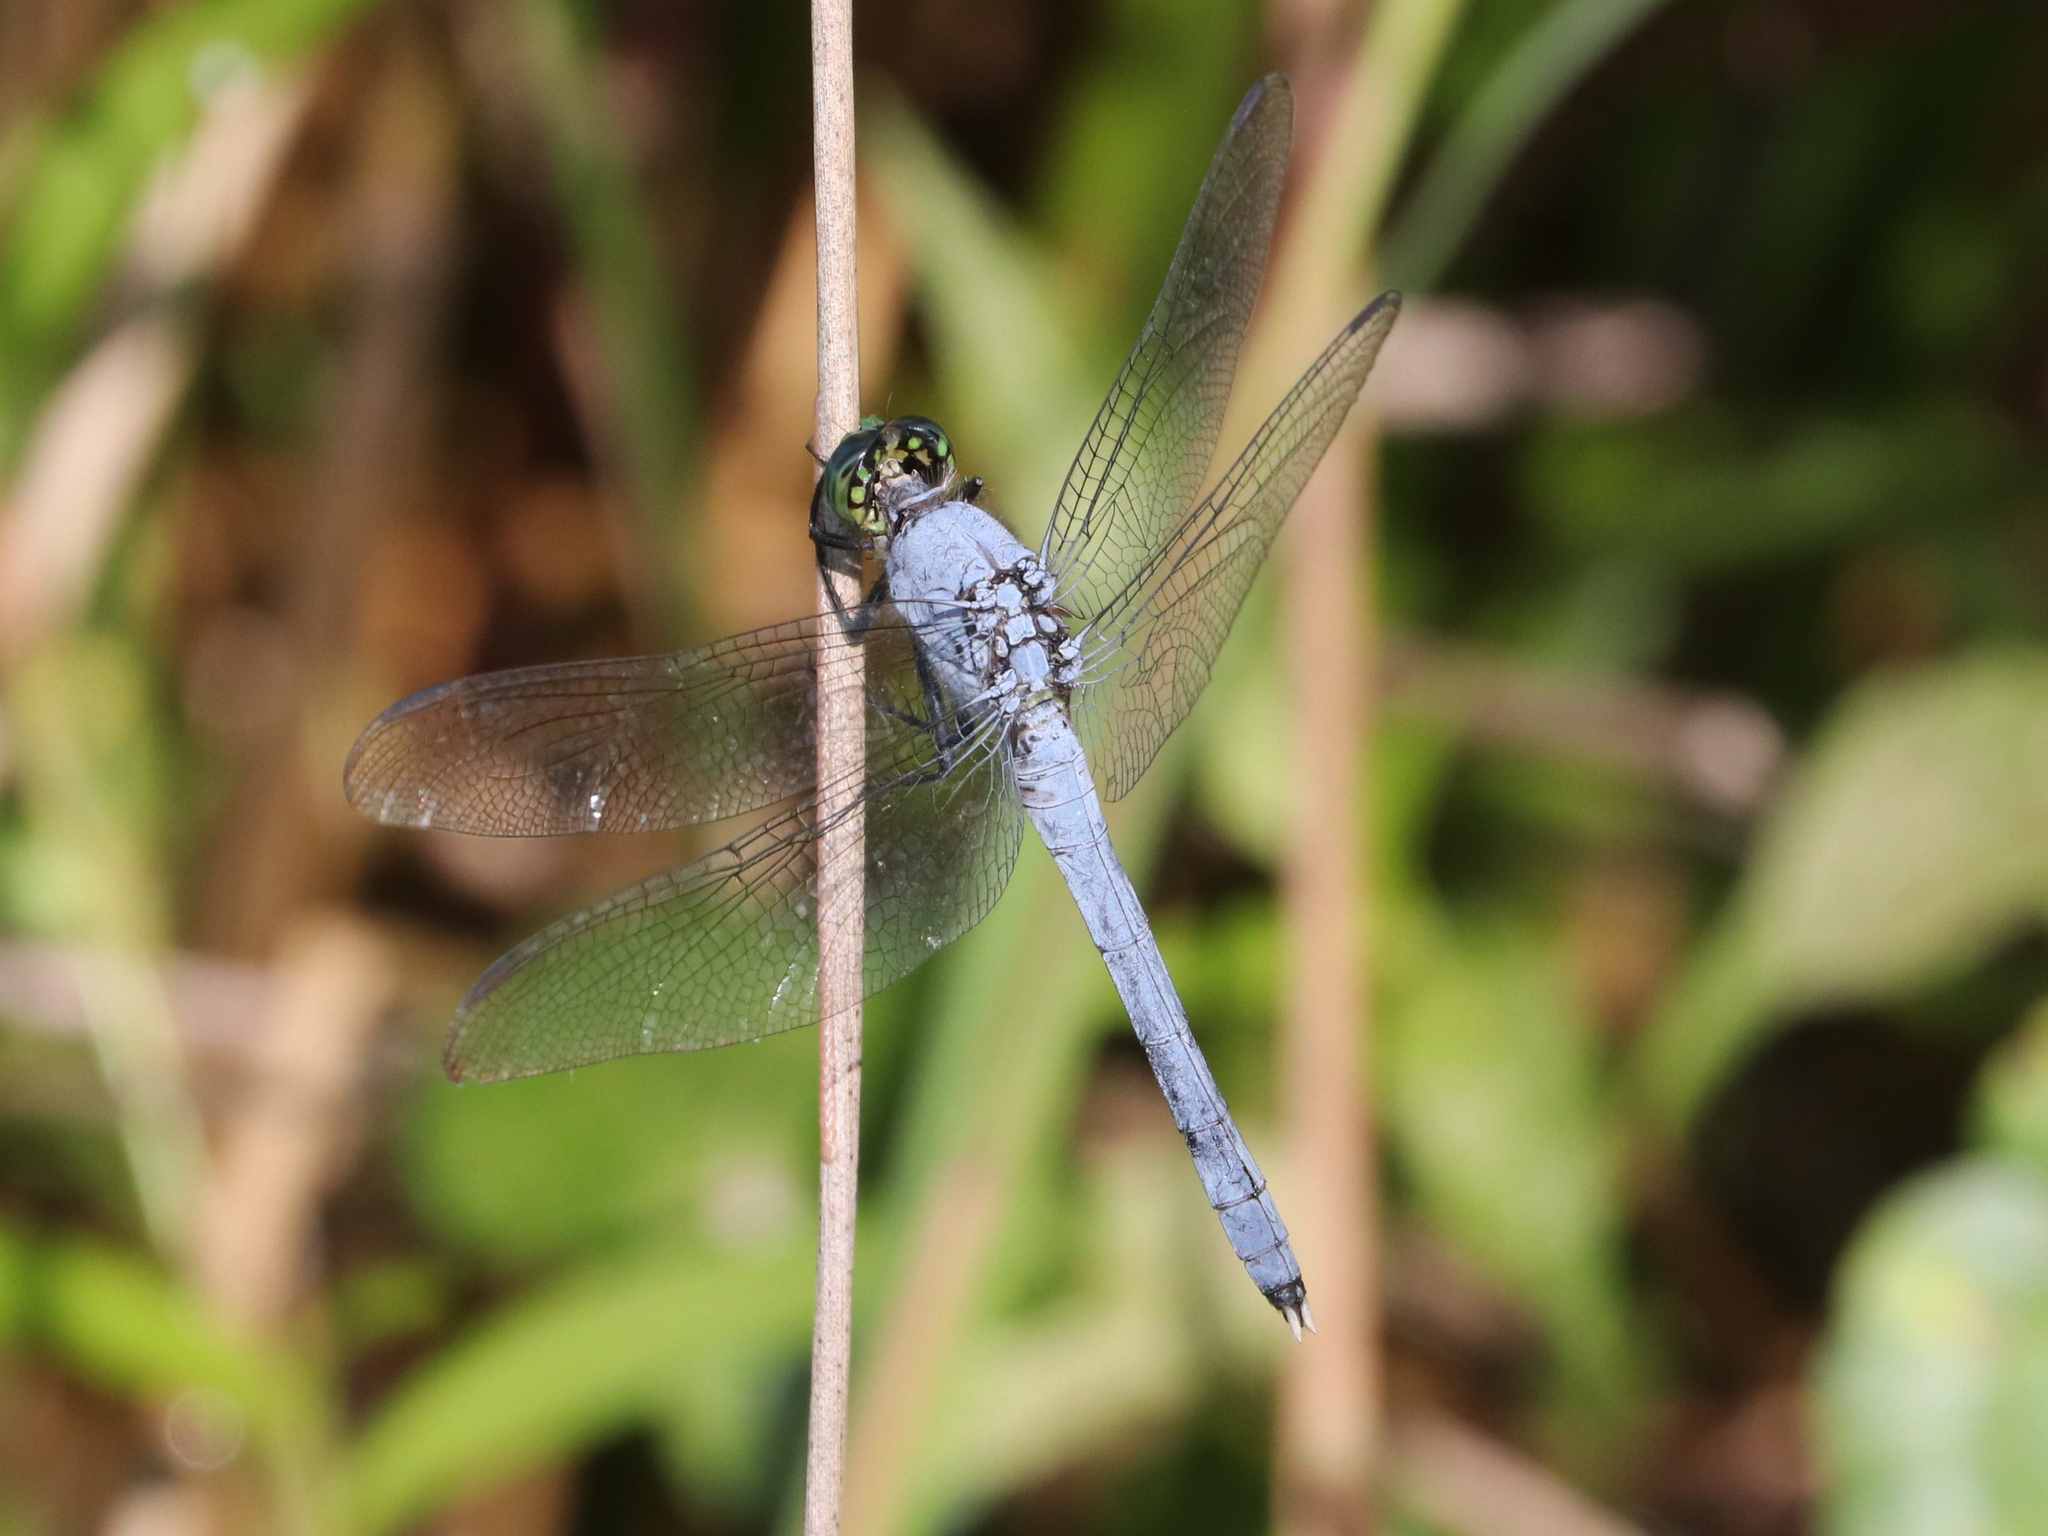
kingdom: Animalia
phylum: Arthropoda
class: Insecta
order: Odonata
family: Libellulidae
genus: Erythemis
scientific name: Erythemis simplicicollis
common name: Eastern pondhawk
